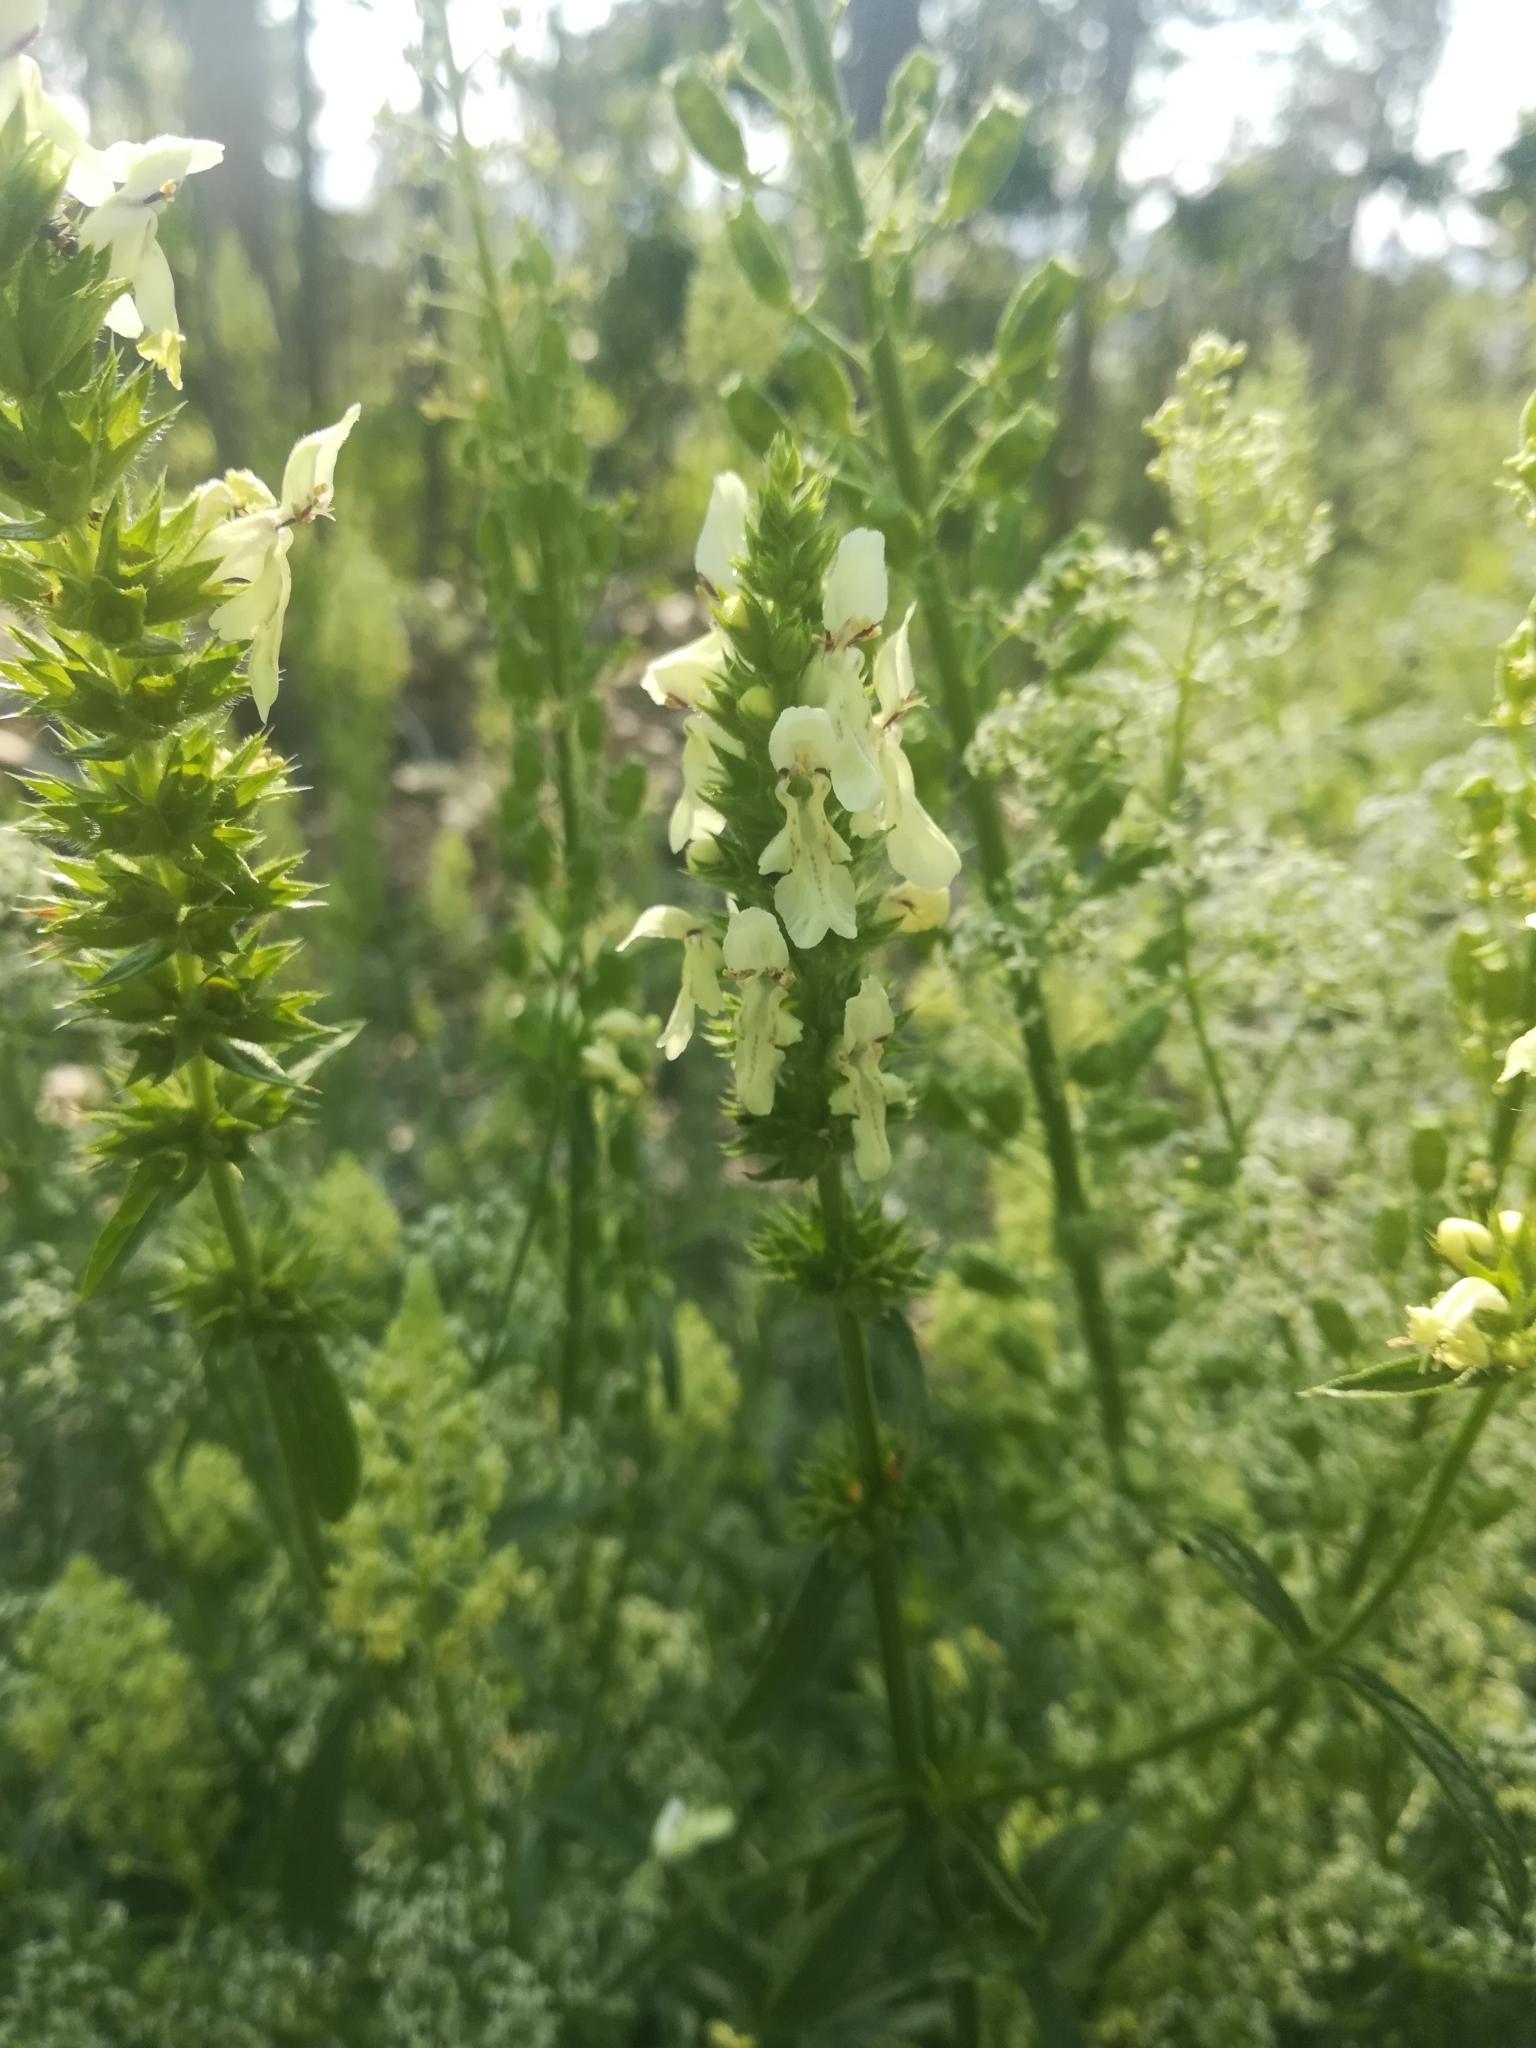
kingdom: Plantae
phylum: Tracheophyta
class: Magnoliopsida
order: Lamiales
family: Lamiaceae
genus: Stachys
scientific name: Stachys recta
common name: Perennial yellow-woundwort
